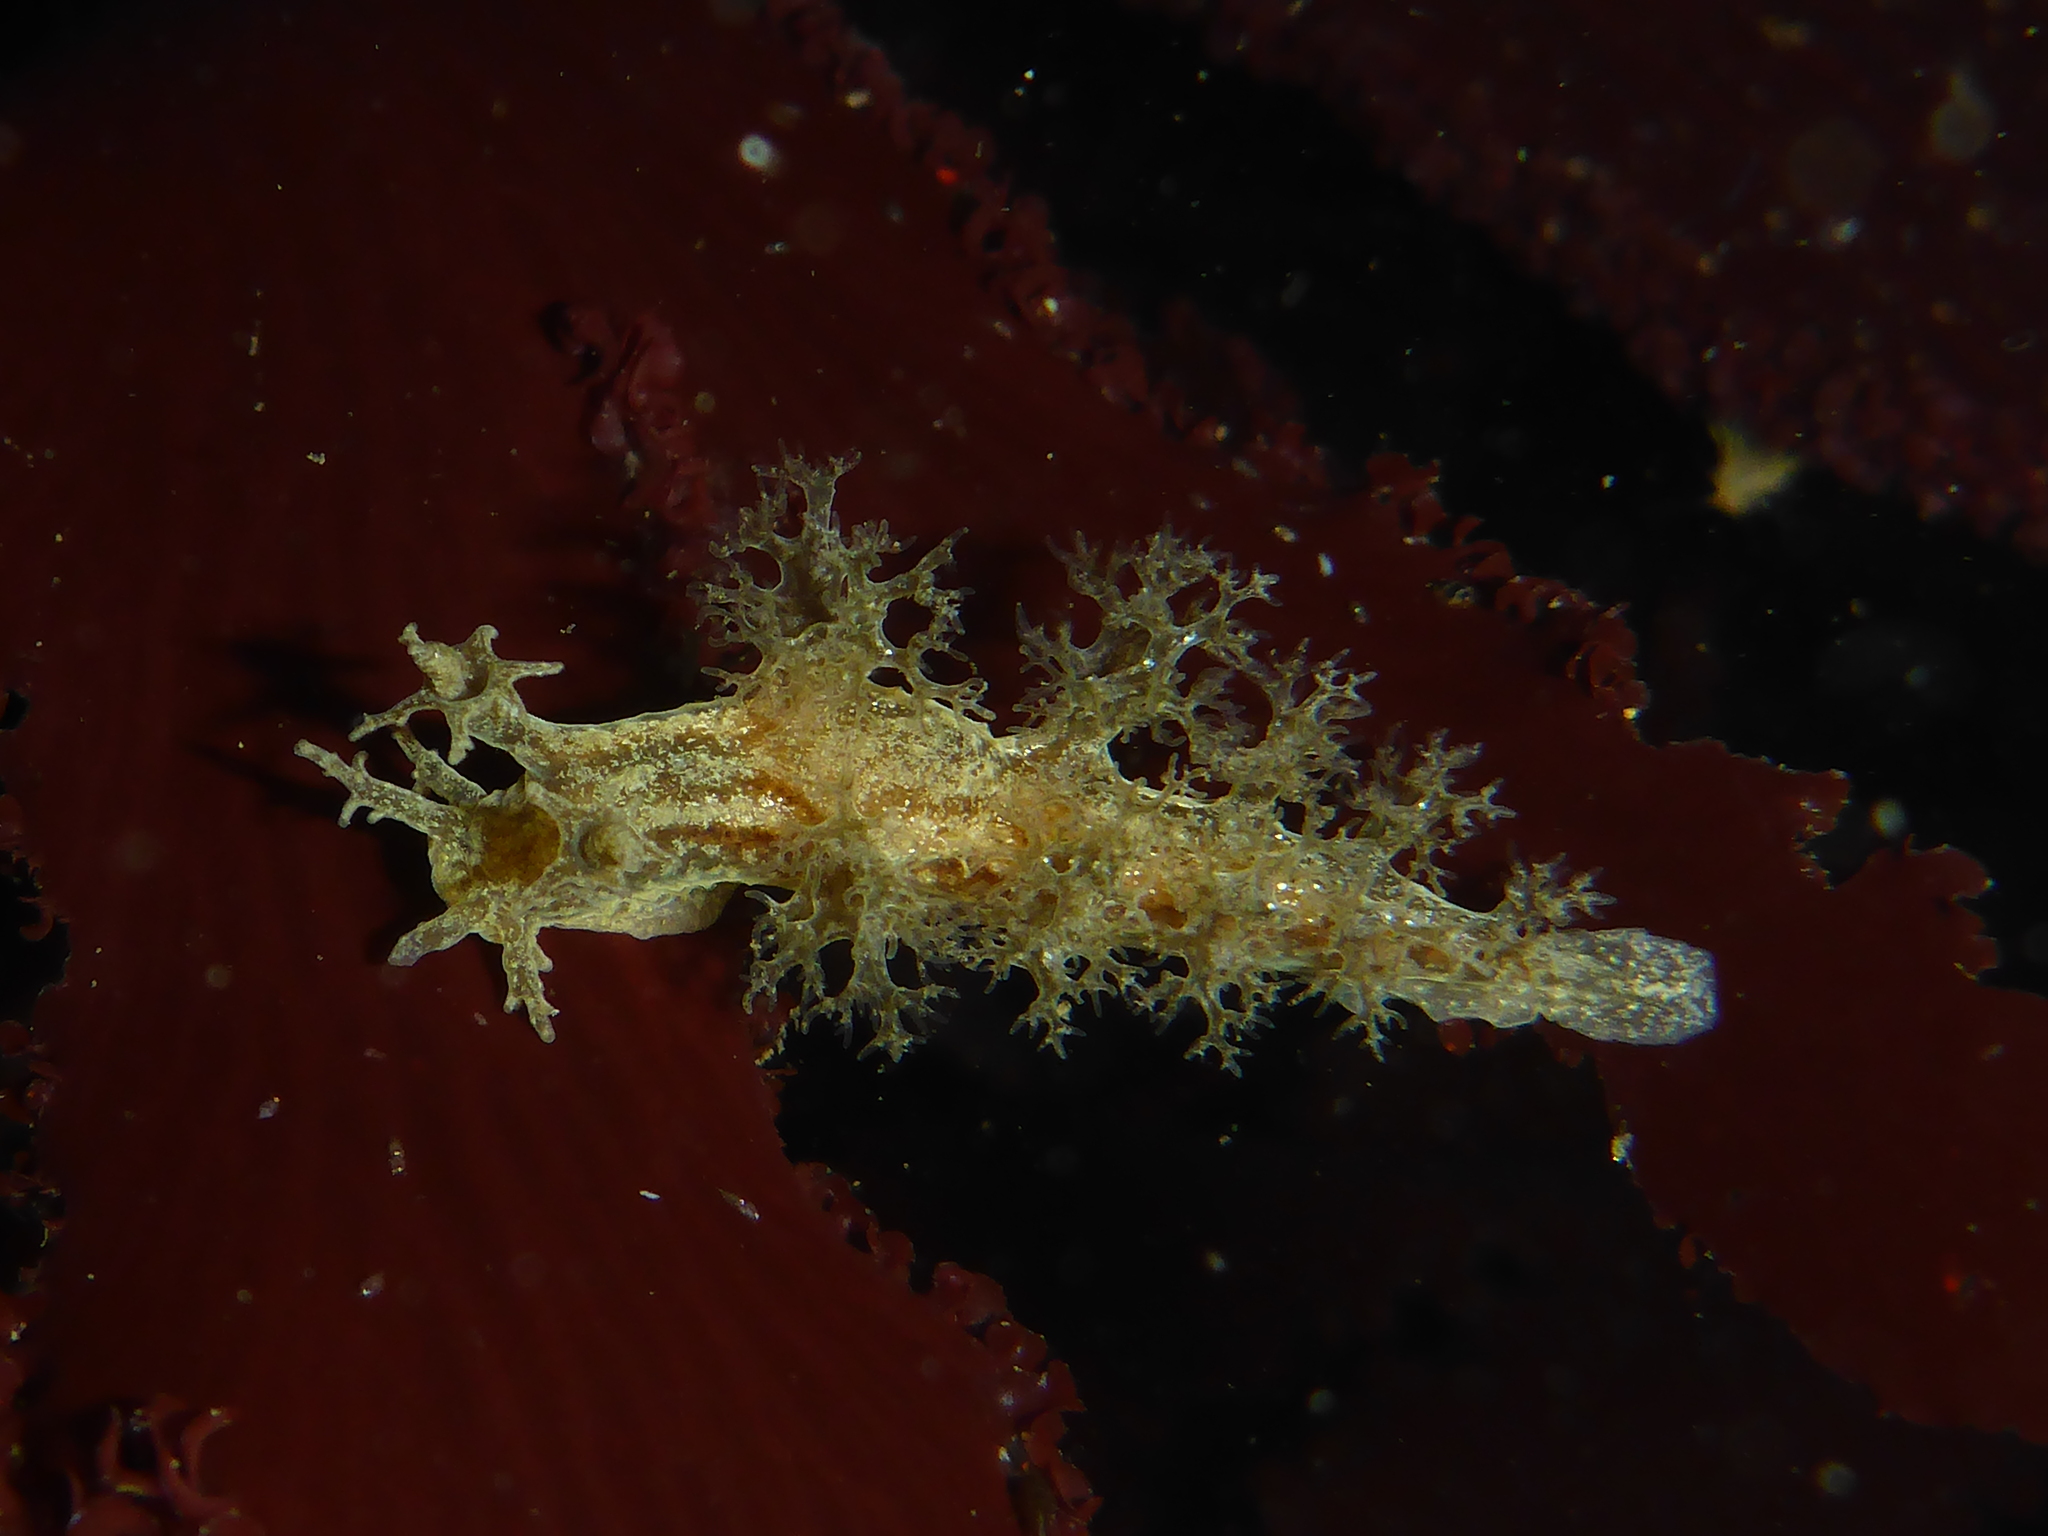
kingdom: Animalia
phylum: Mollusca
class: Gastropoda
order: Nudibranchia
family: Dendronotidae
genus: Dendronotus
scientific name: Dendronotus subramosus
